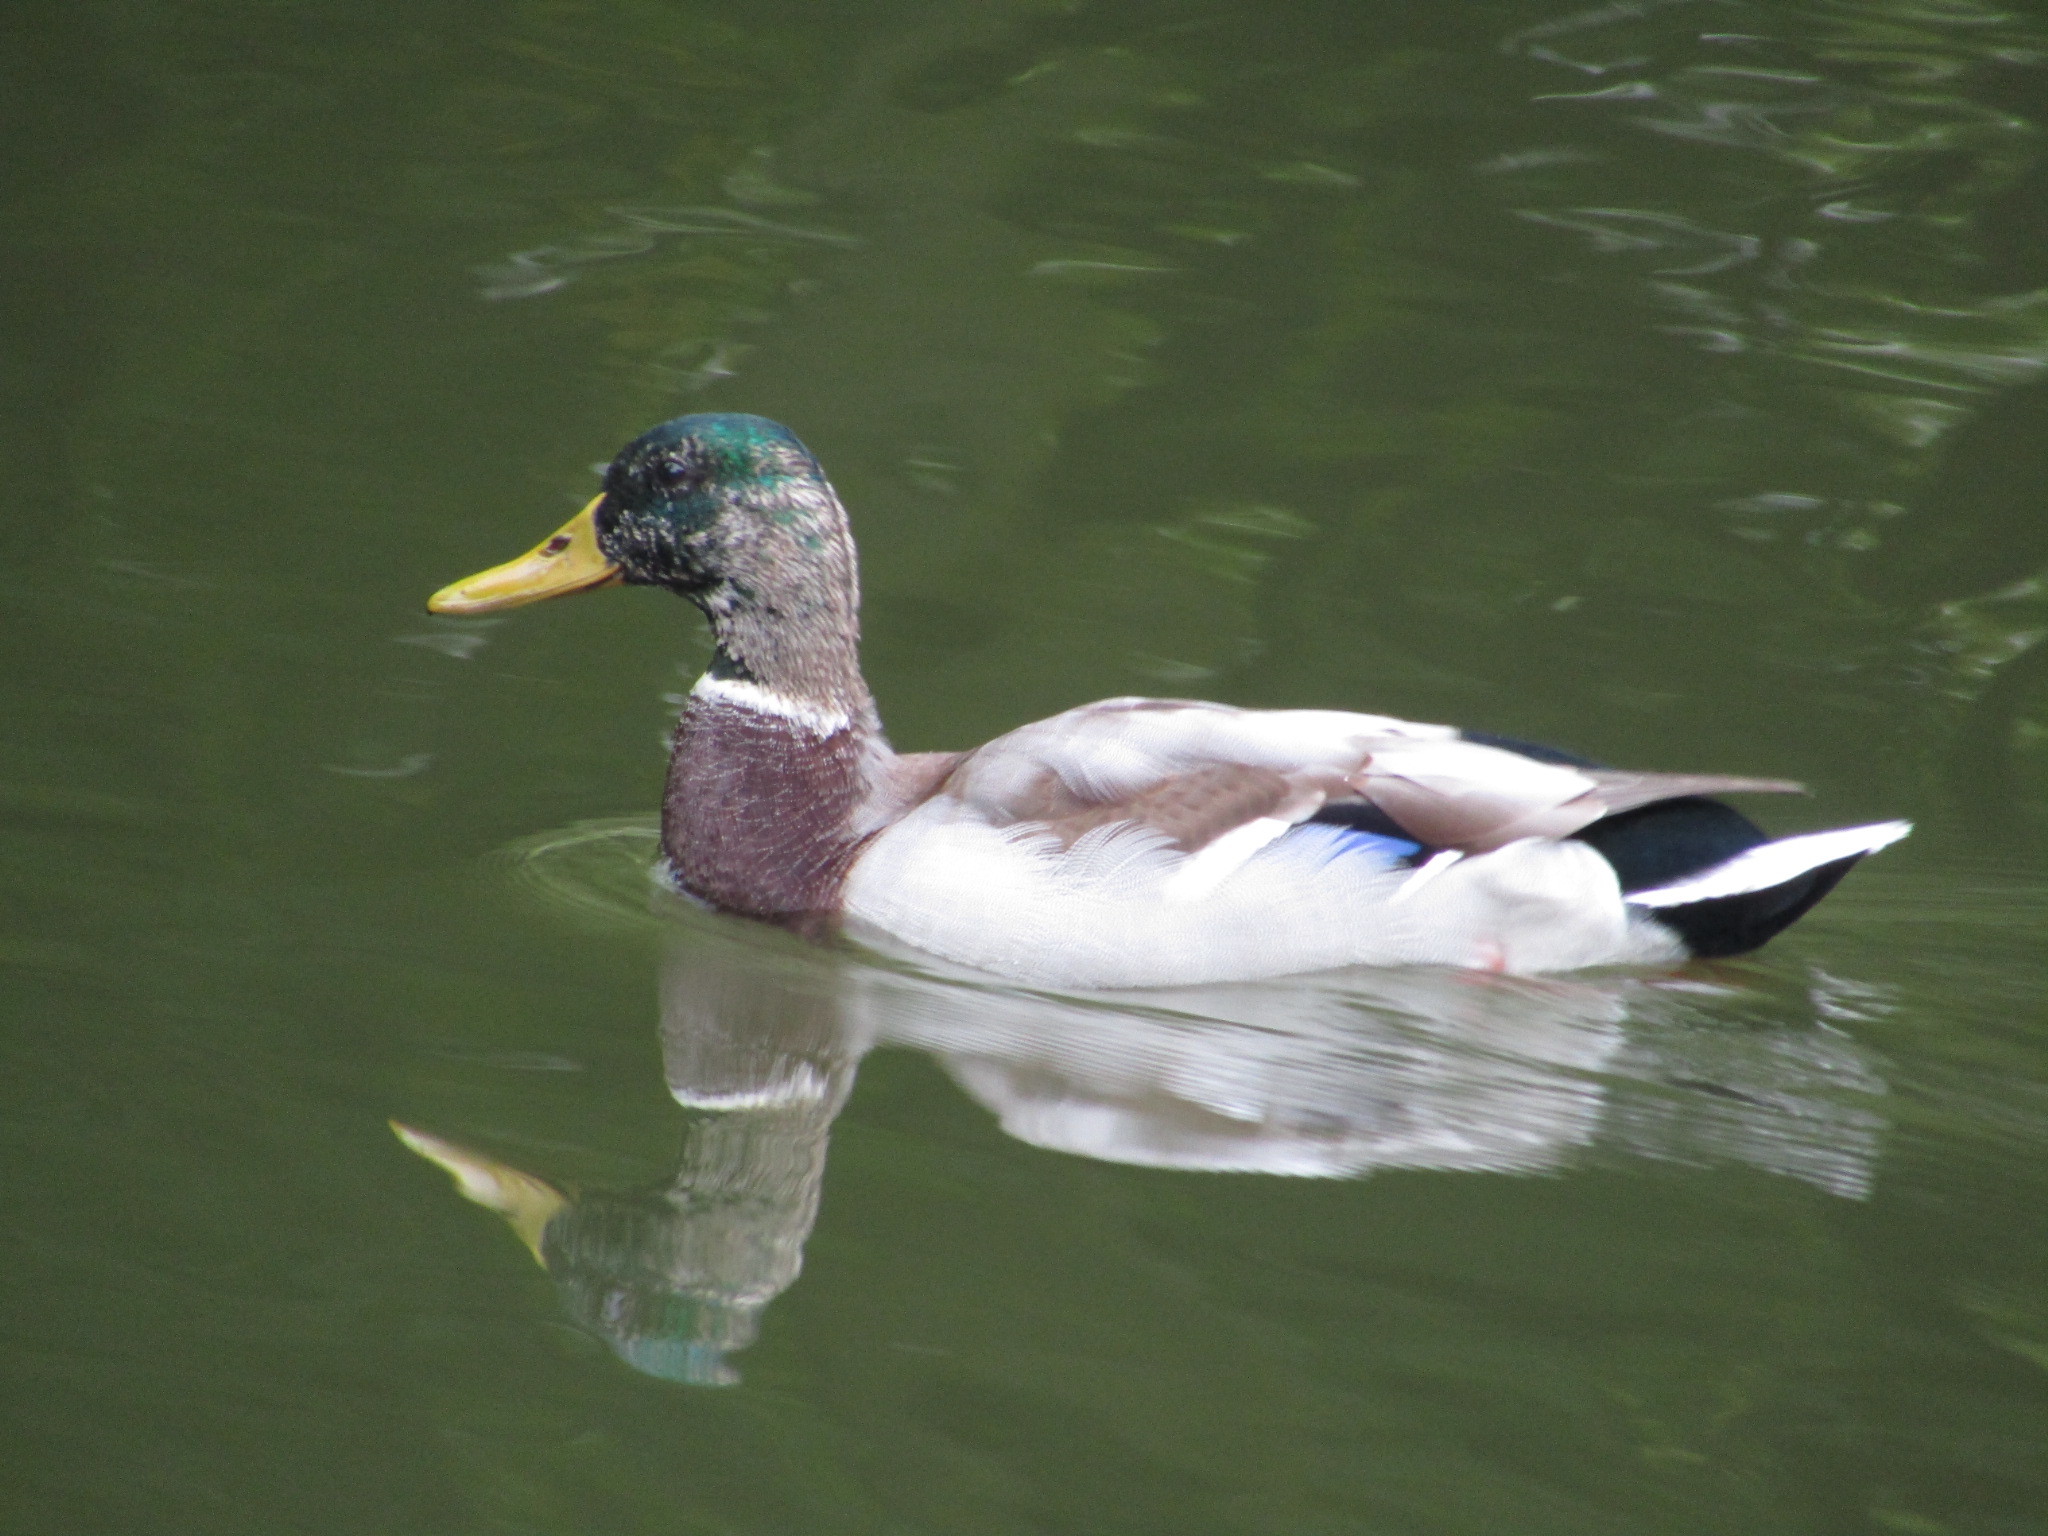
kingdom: Animalia
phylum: Chordata
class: Aves
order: Anseriformes
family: Anatidae
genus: Anas
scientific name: Anas platyrhynchos
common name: Mallard
